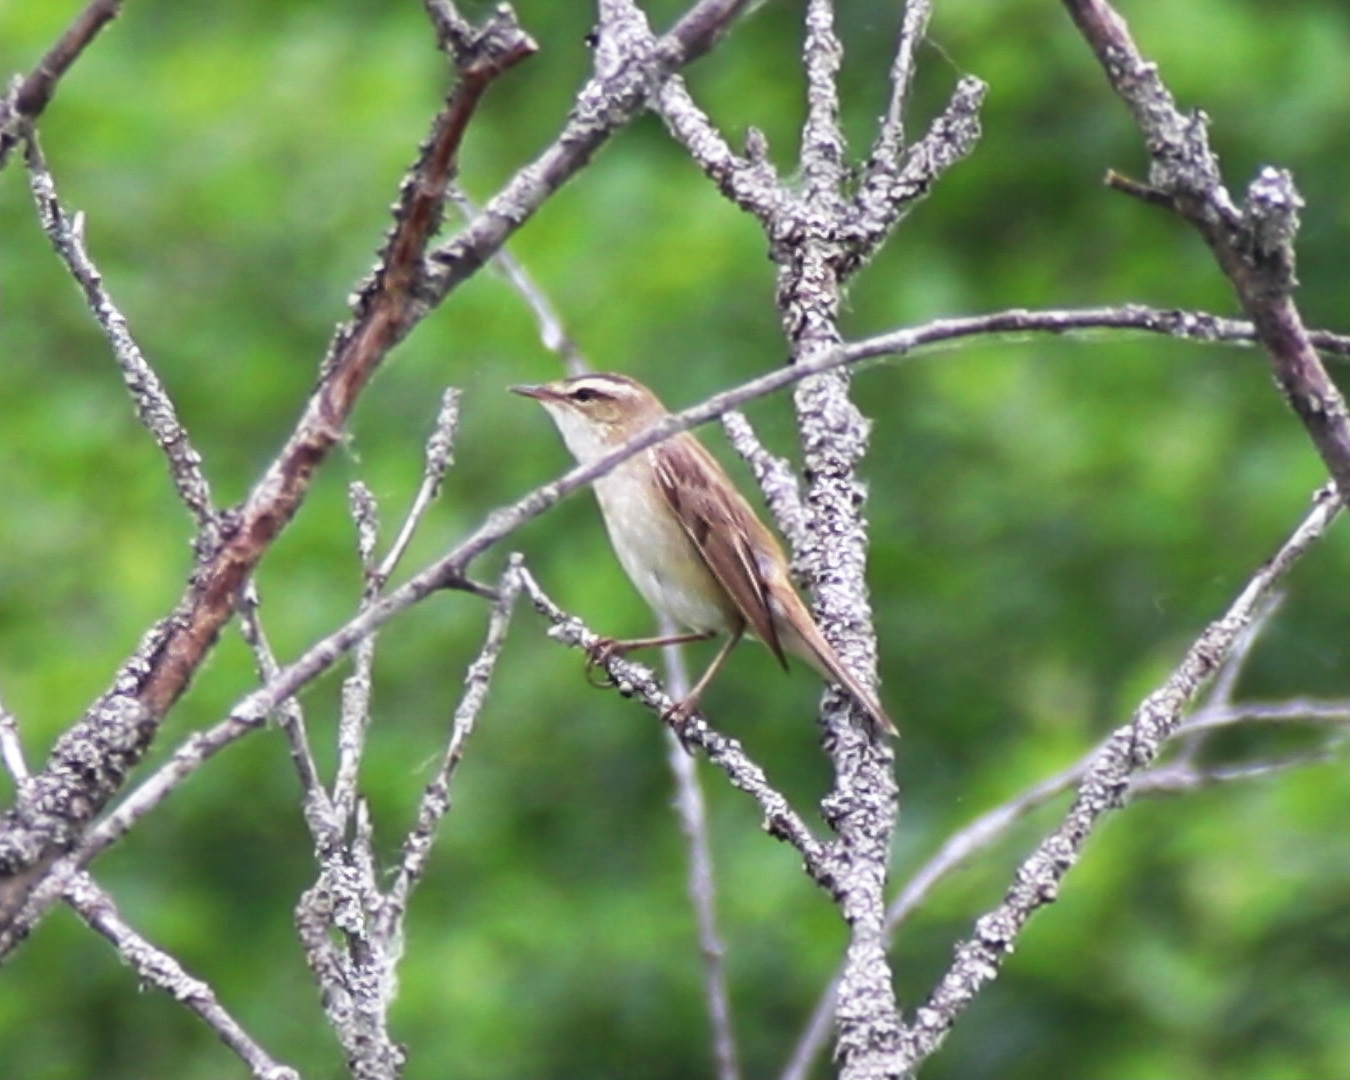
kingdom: Animalia
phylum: Chordata
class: Aves
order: Passeriformes
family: Acrocephalidae
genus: Acrocephalus
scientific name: Acrocephalus schoenobaenus
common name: Sedge warbler
